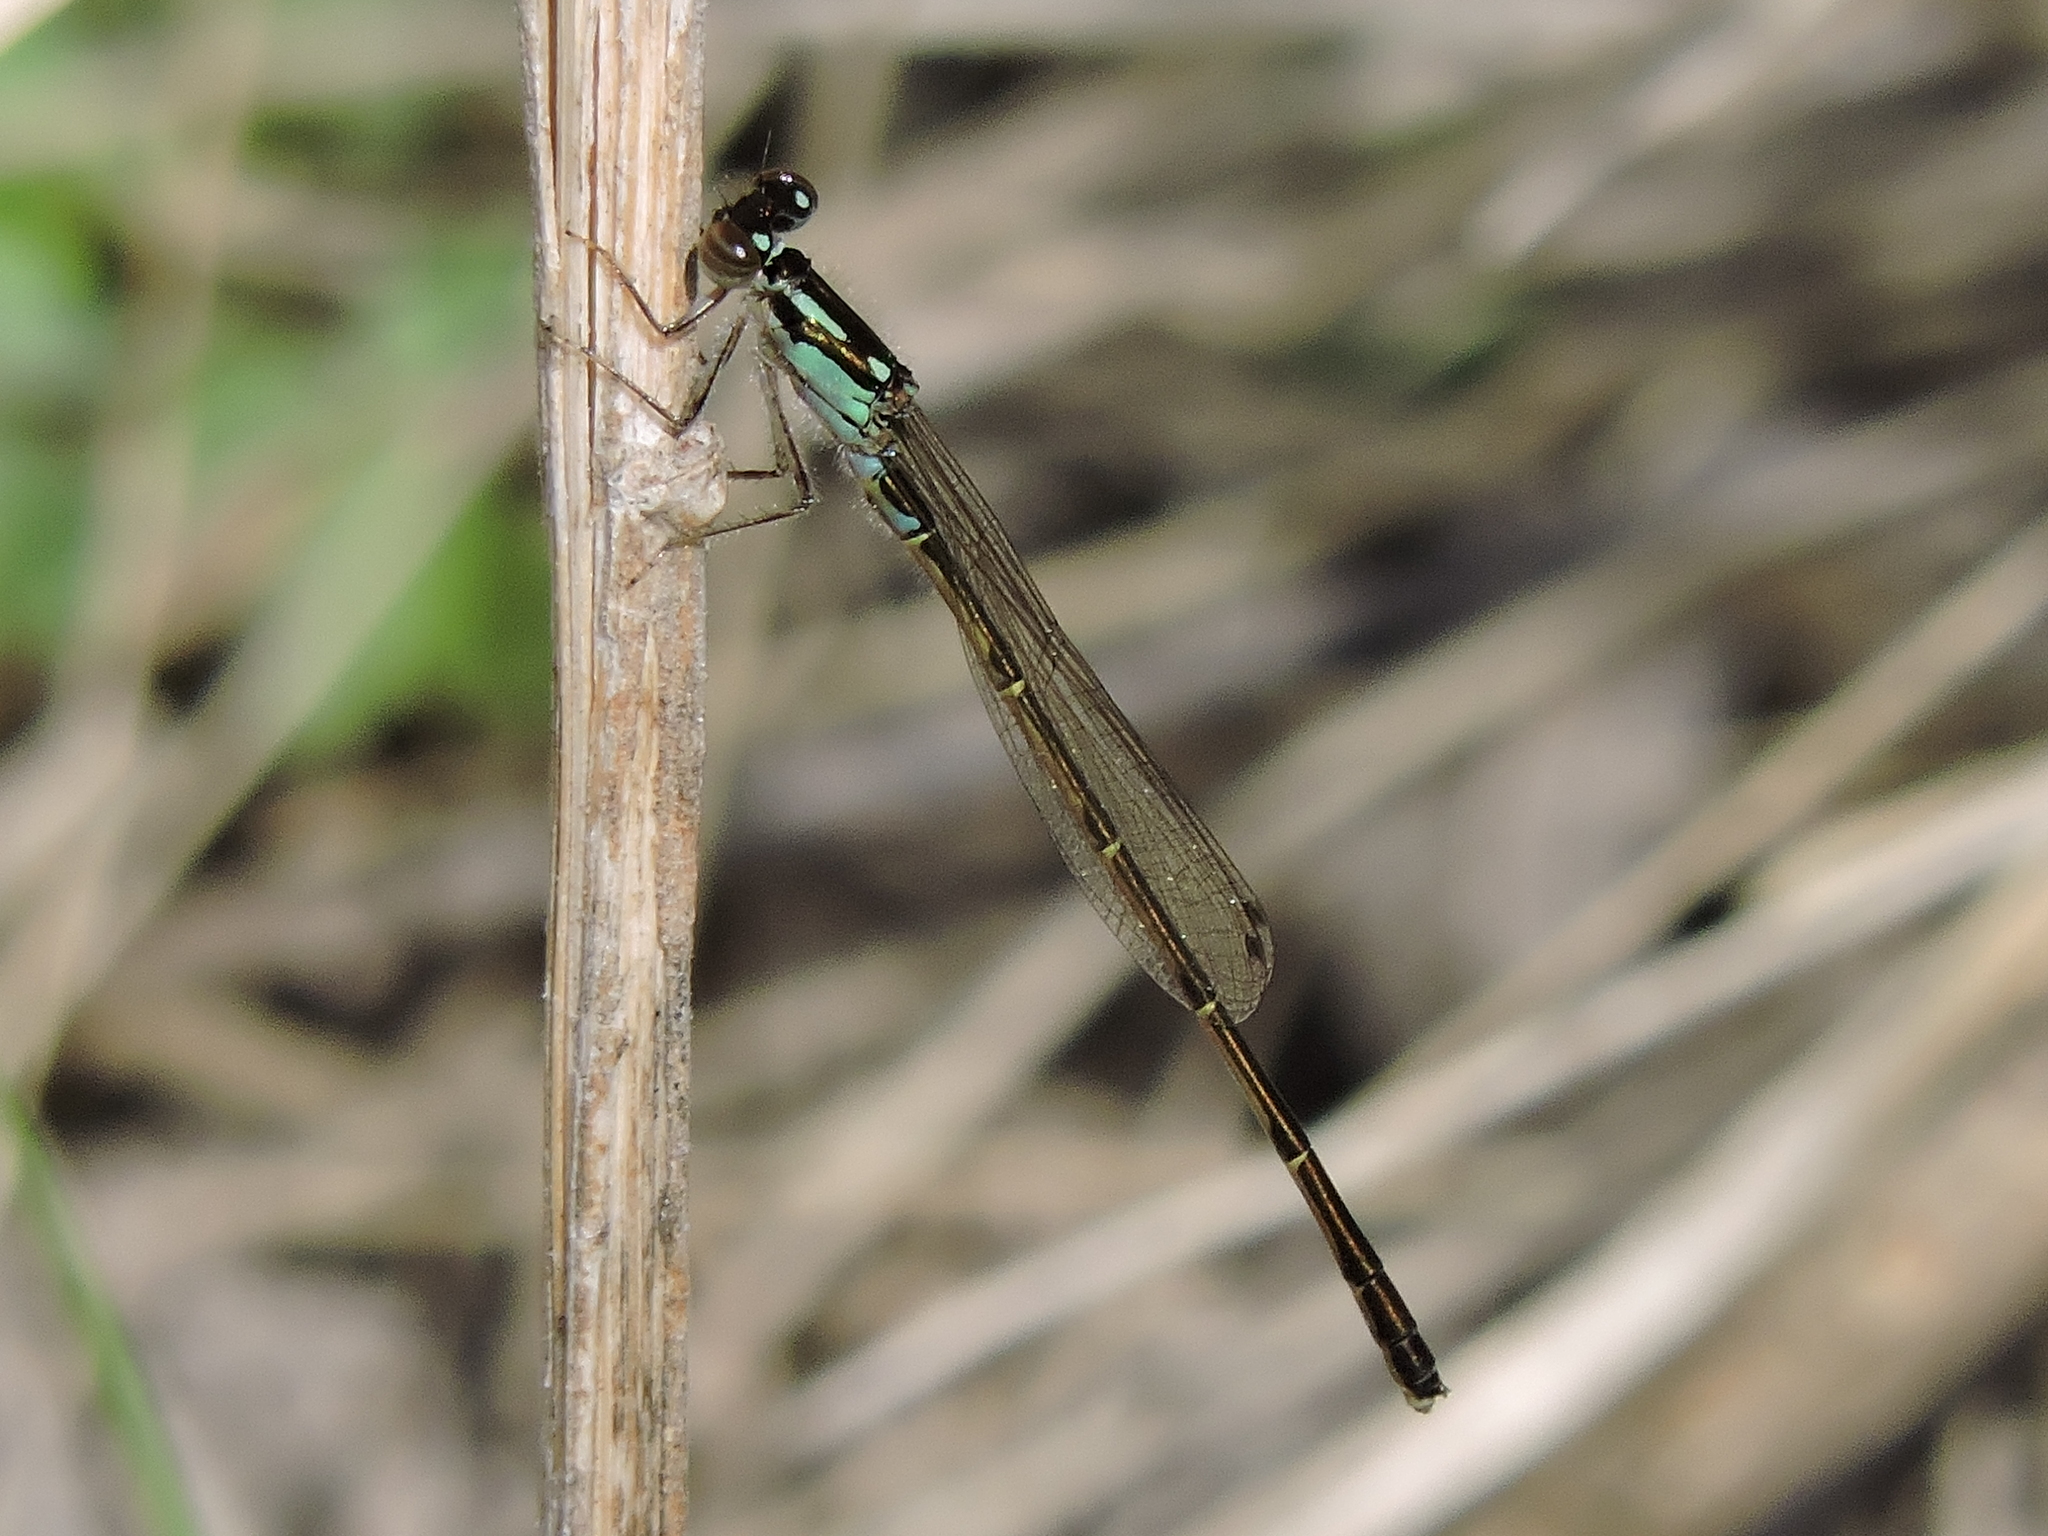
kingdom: Animalia
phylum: Arthropoda
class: Insecta
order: Odonata
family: Coenagrionidae
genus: Ischnura
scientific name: Ischnura posita
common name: Fragile forktail
